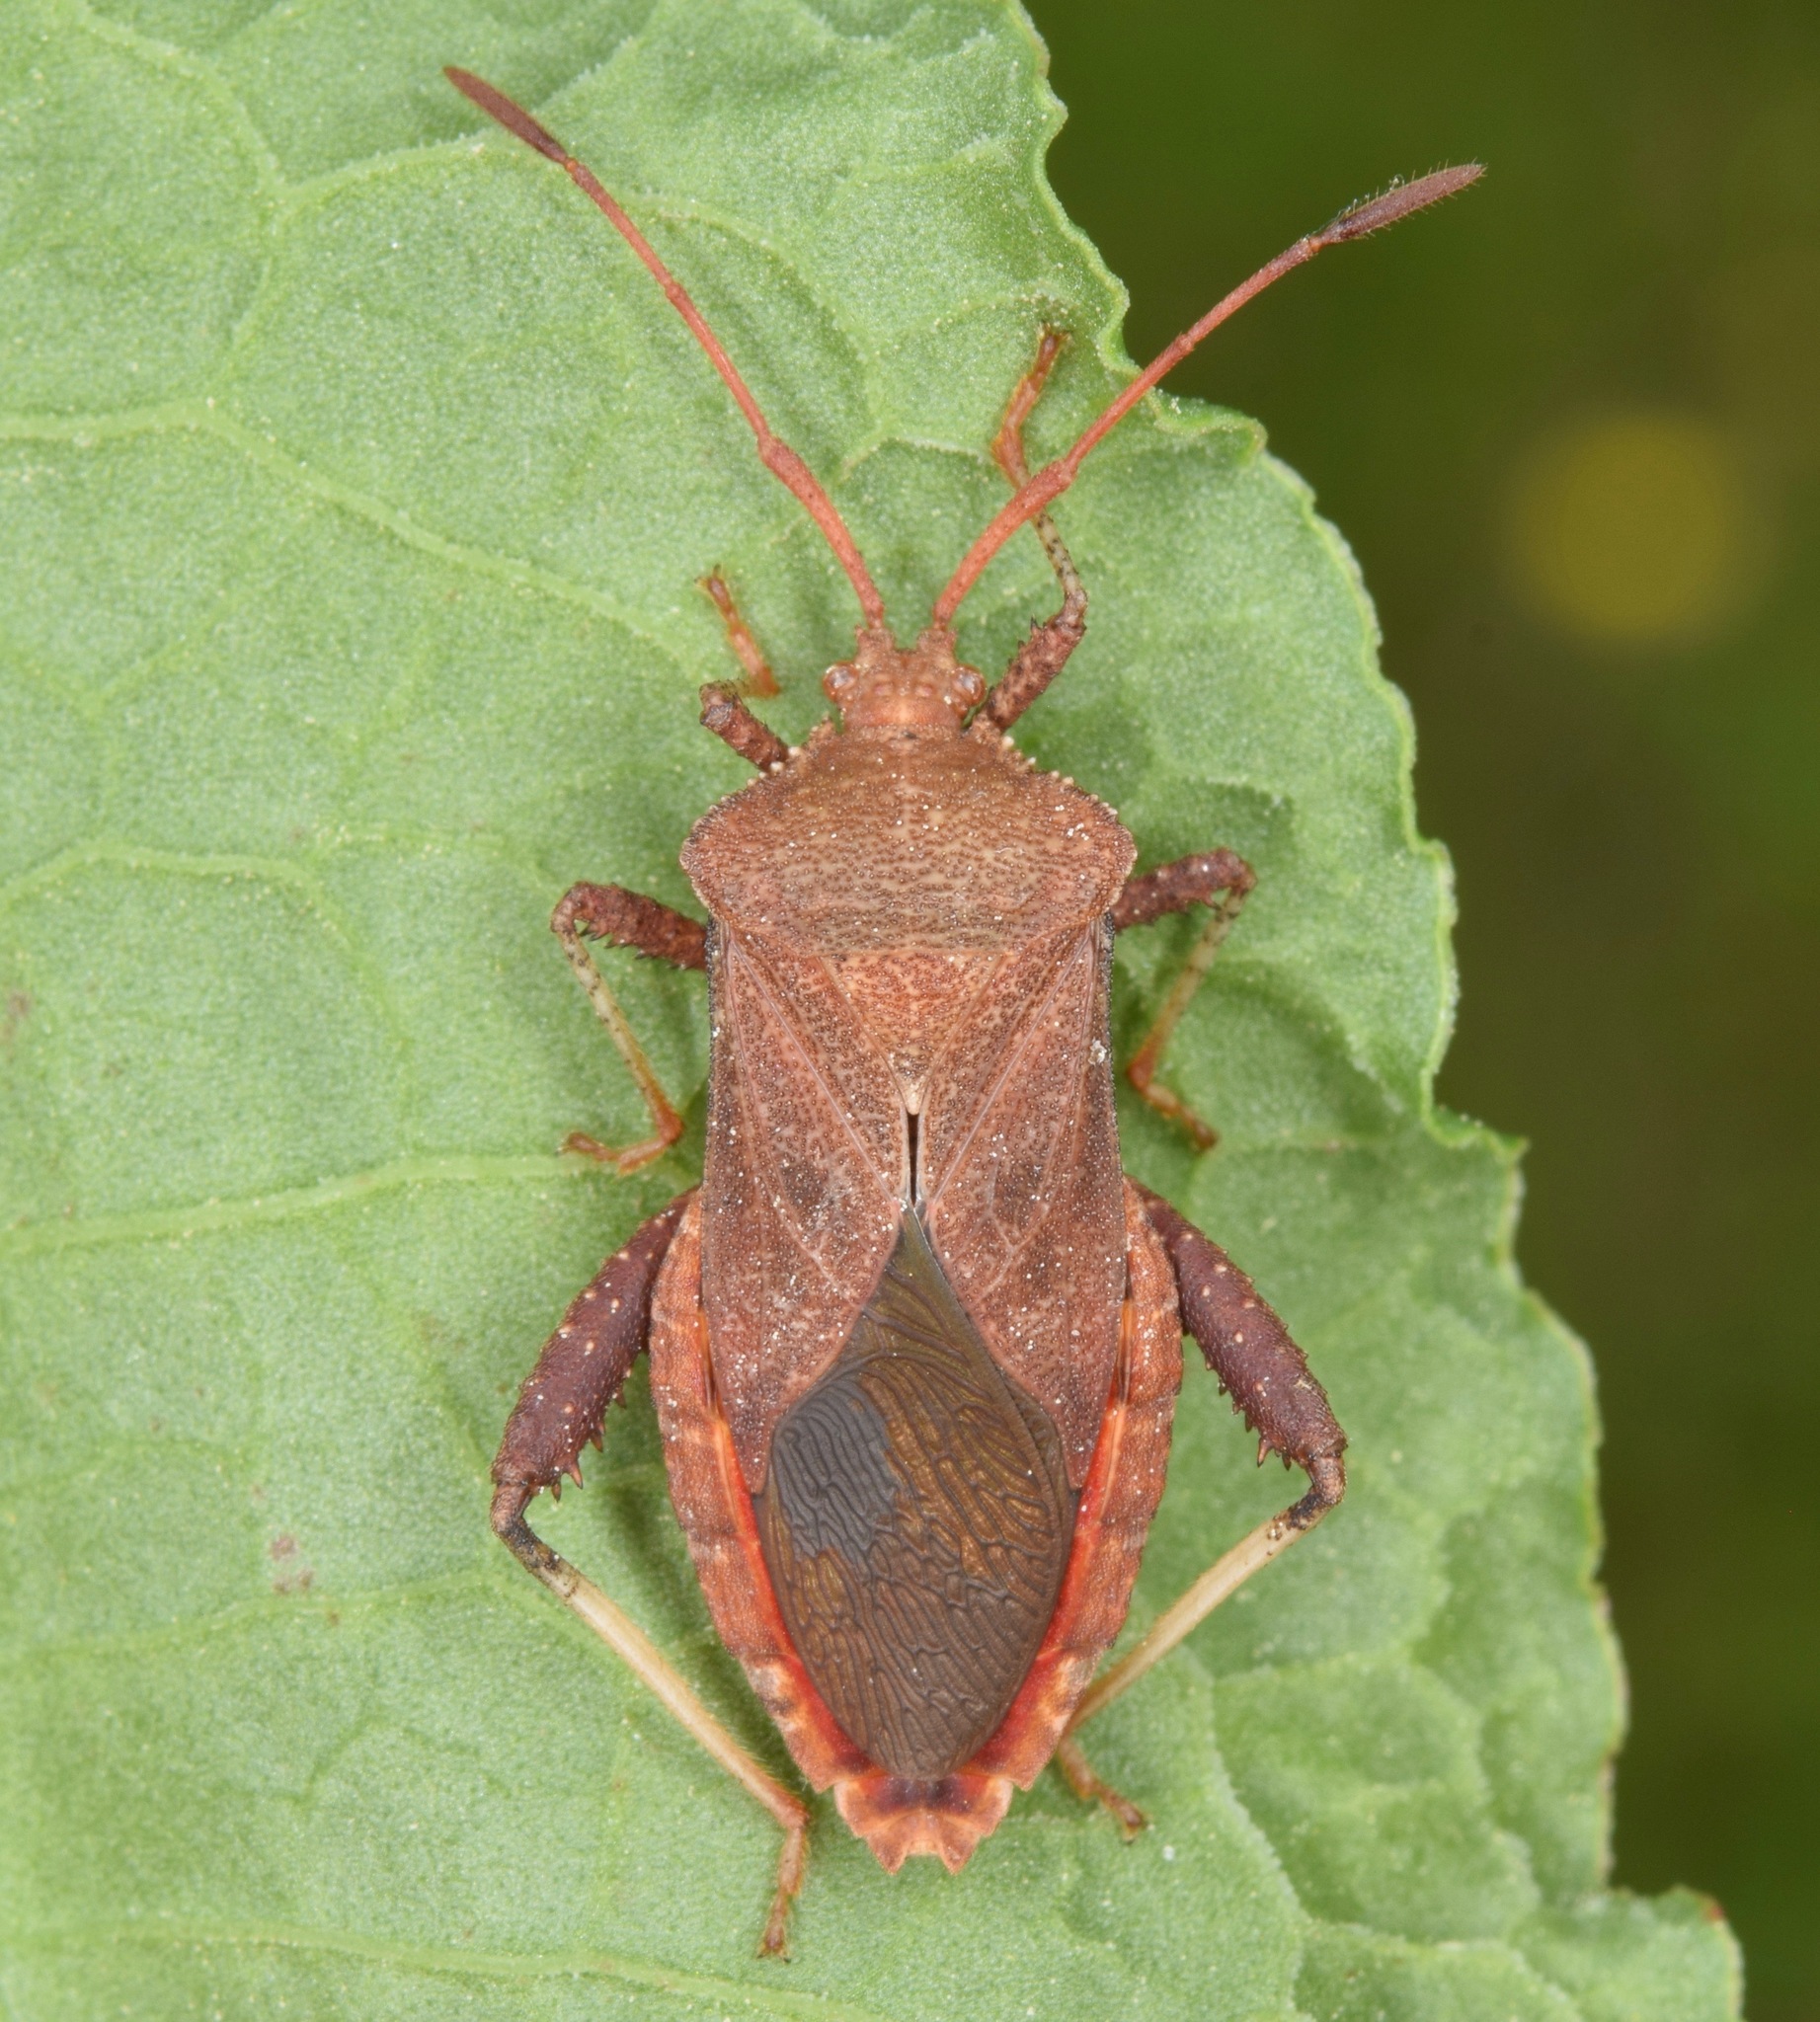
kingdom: Animalia
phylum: Arthropoda
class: Insecta
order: Hemiptera
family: Coreidae
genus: Euthochtha
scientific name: Euthochtha galeator
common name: Helmeted squash bug
